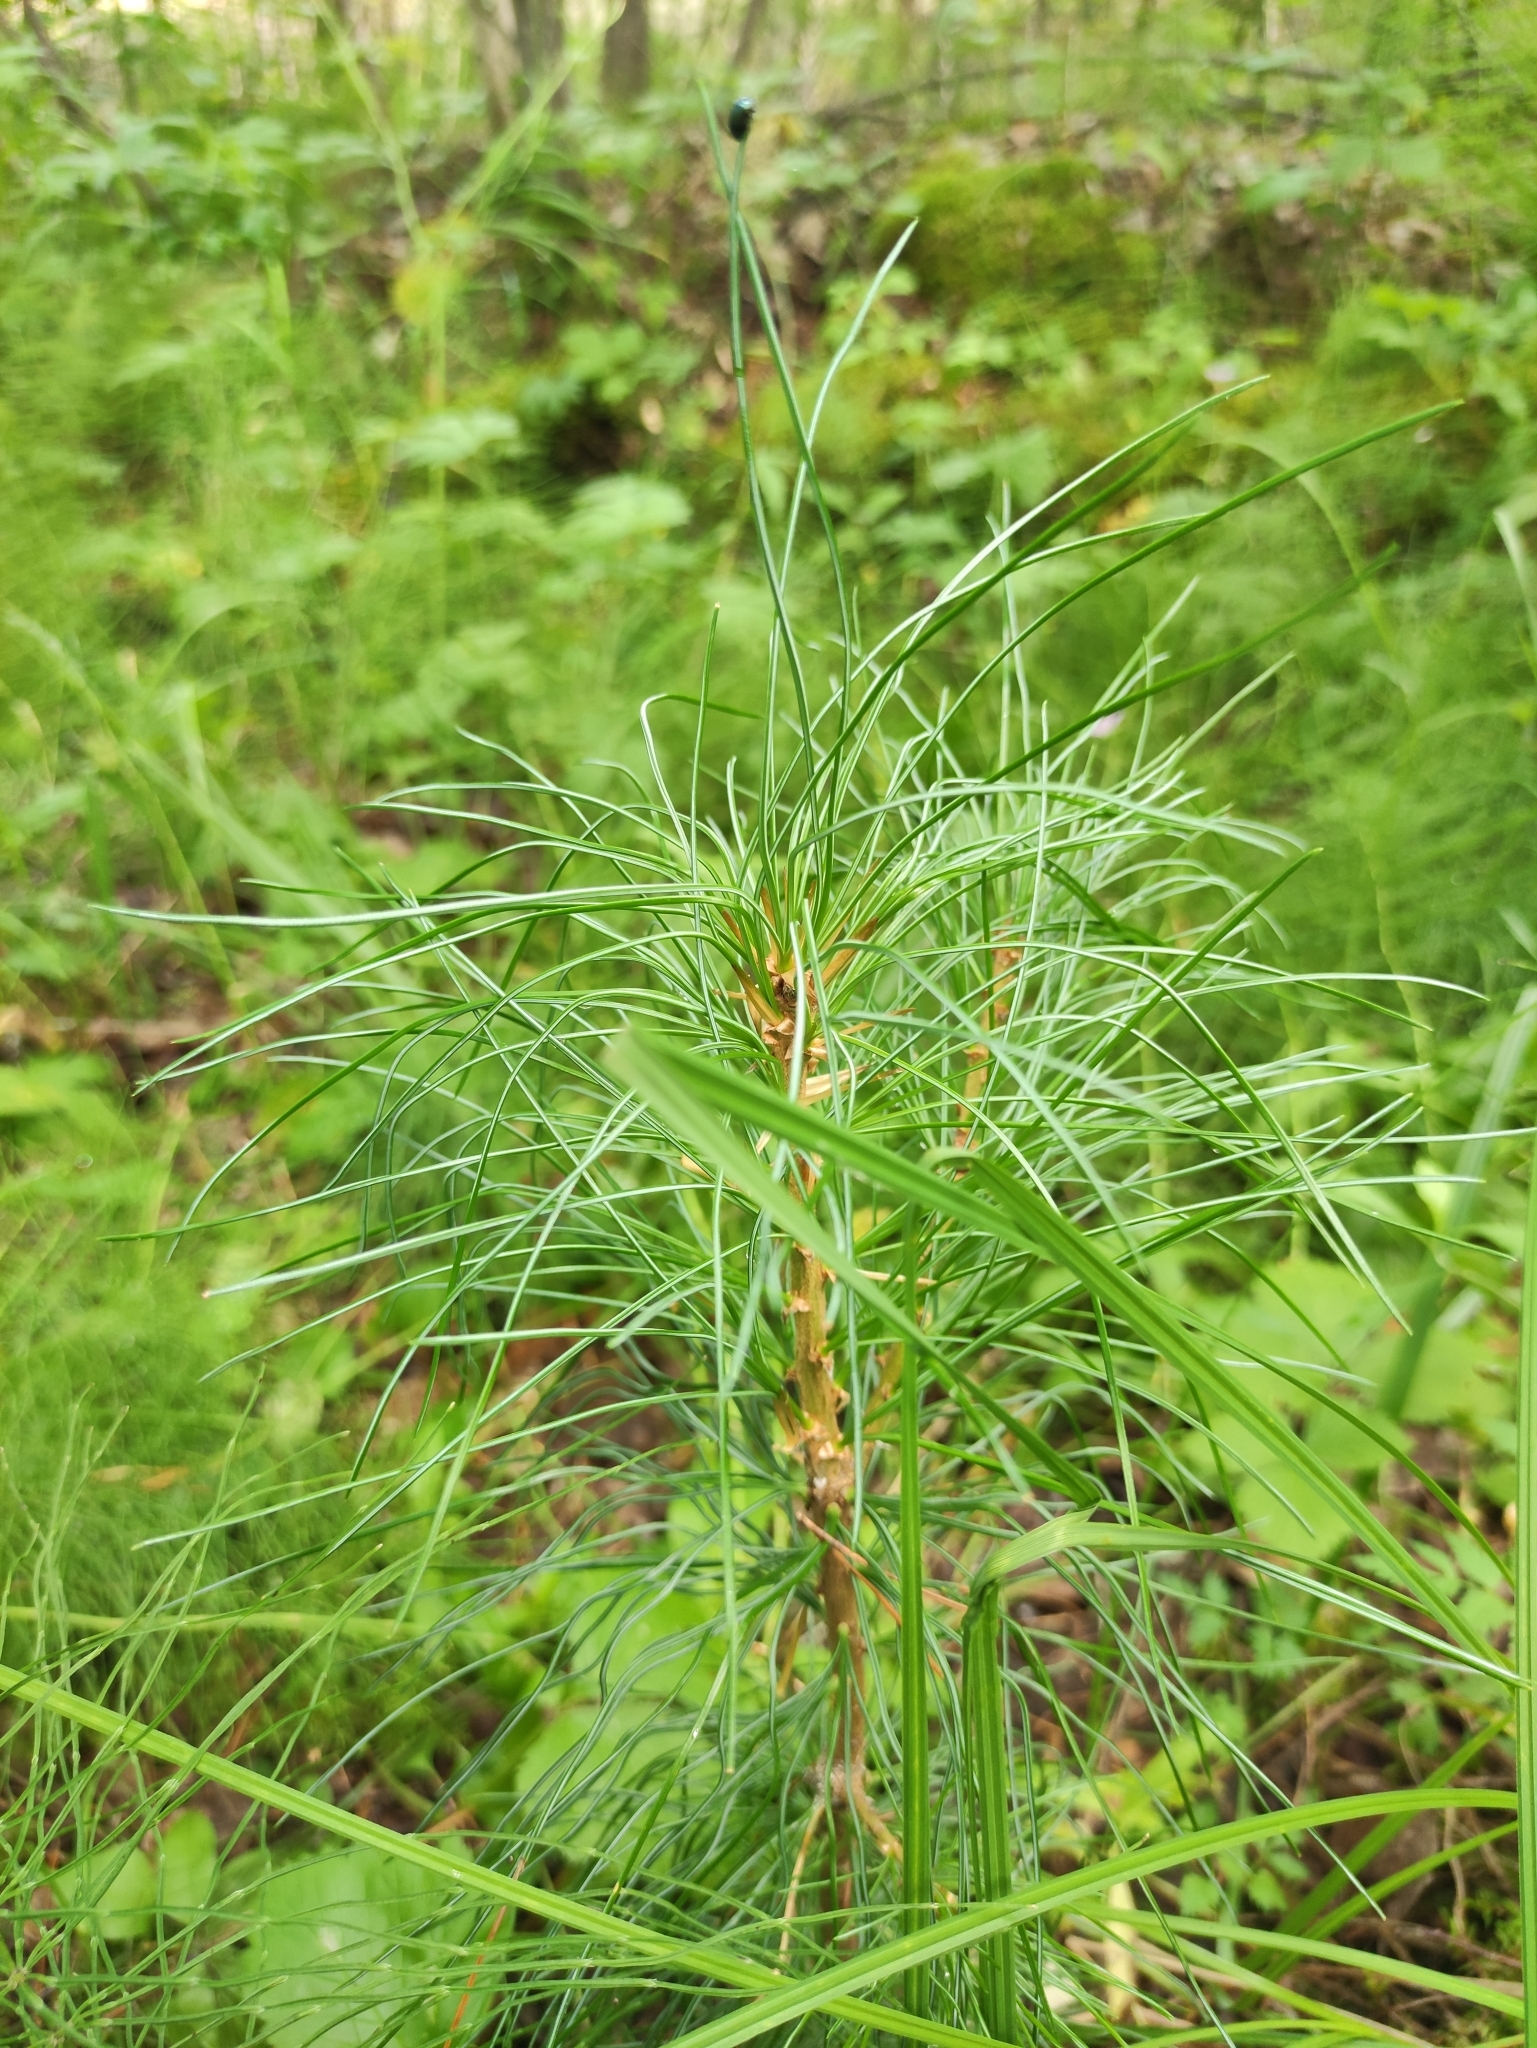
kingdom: Plantae
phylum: Tracheophyta
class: Pinopsida
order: Pinales
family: Pinaceae
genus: Pinus
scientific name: Pinus sibirica
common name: Siberian pine
